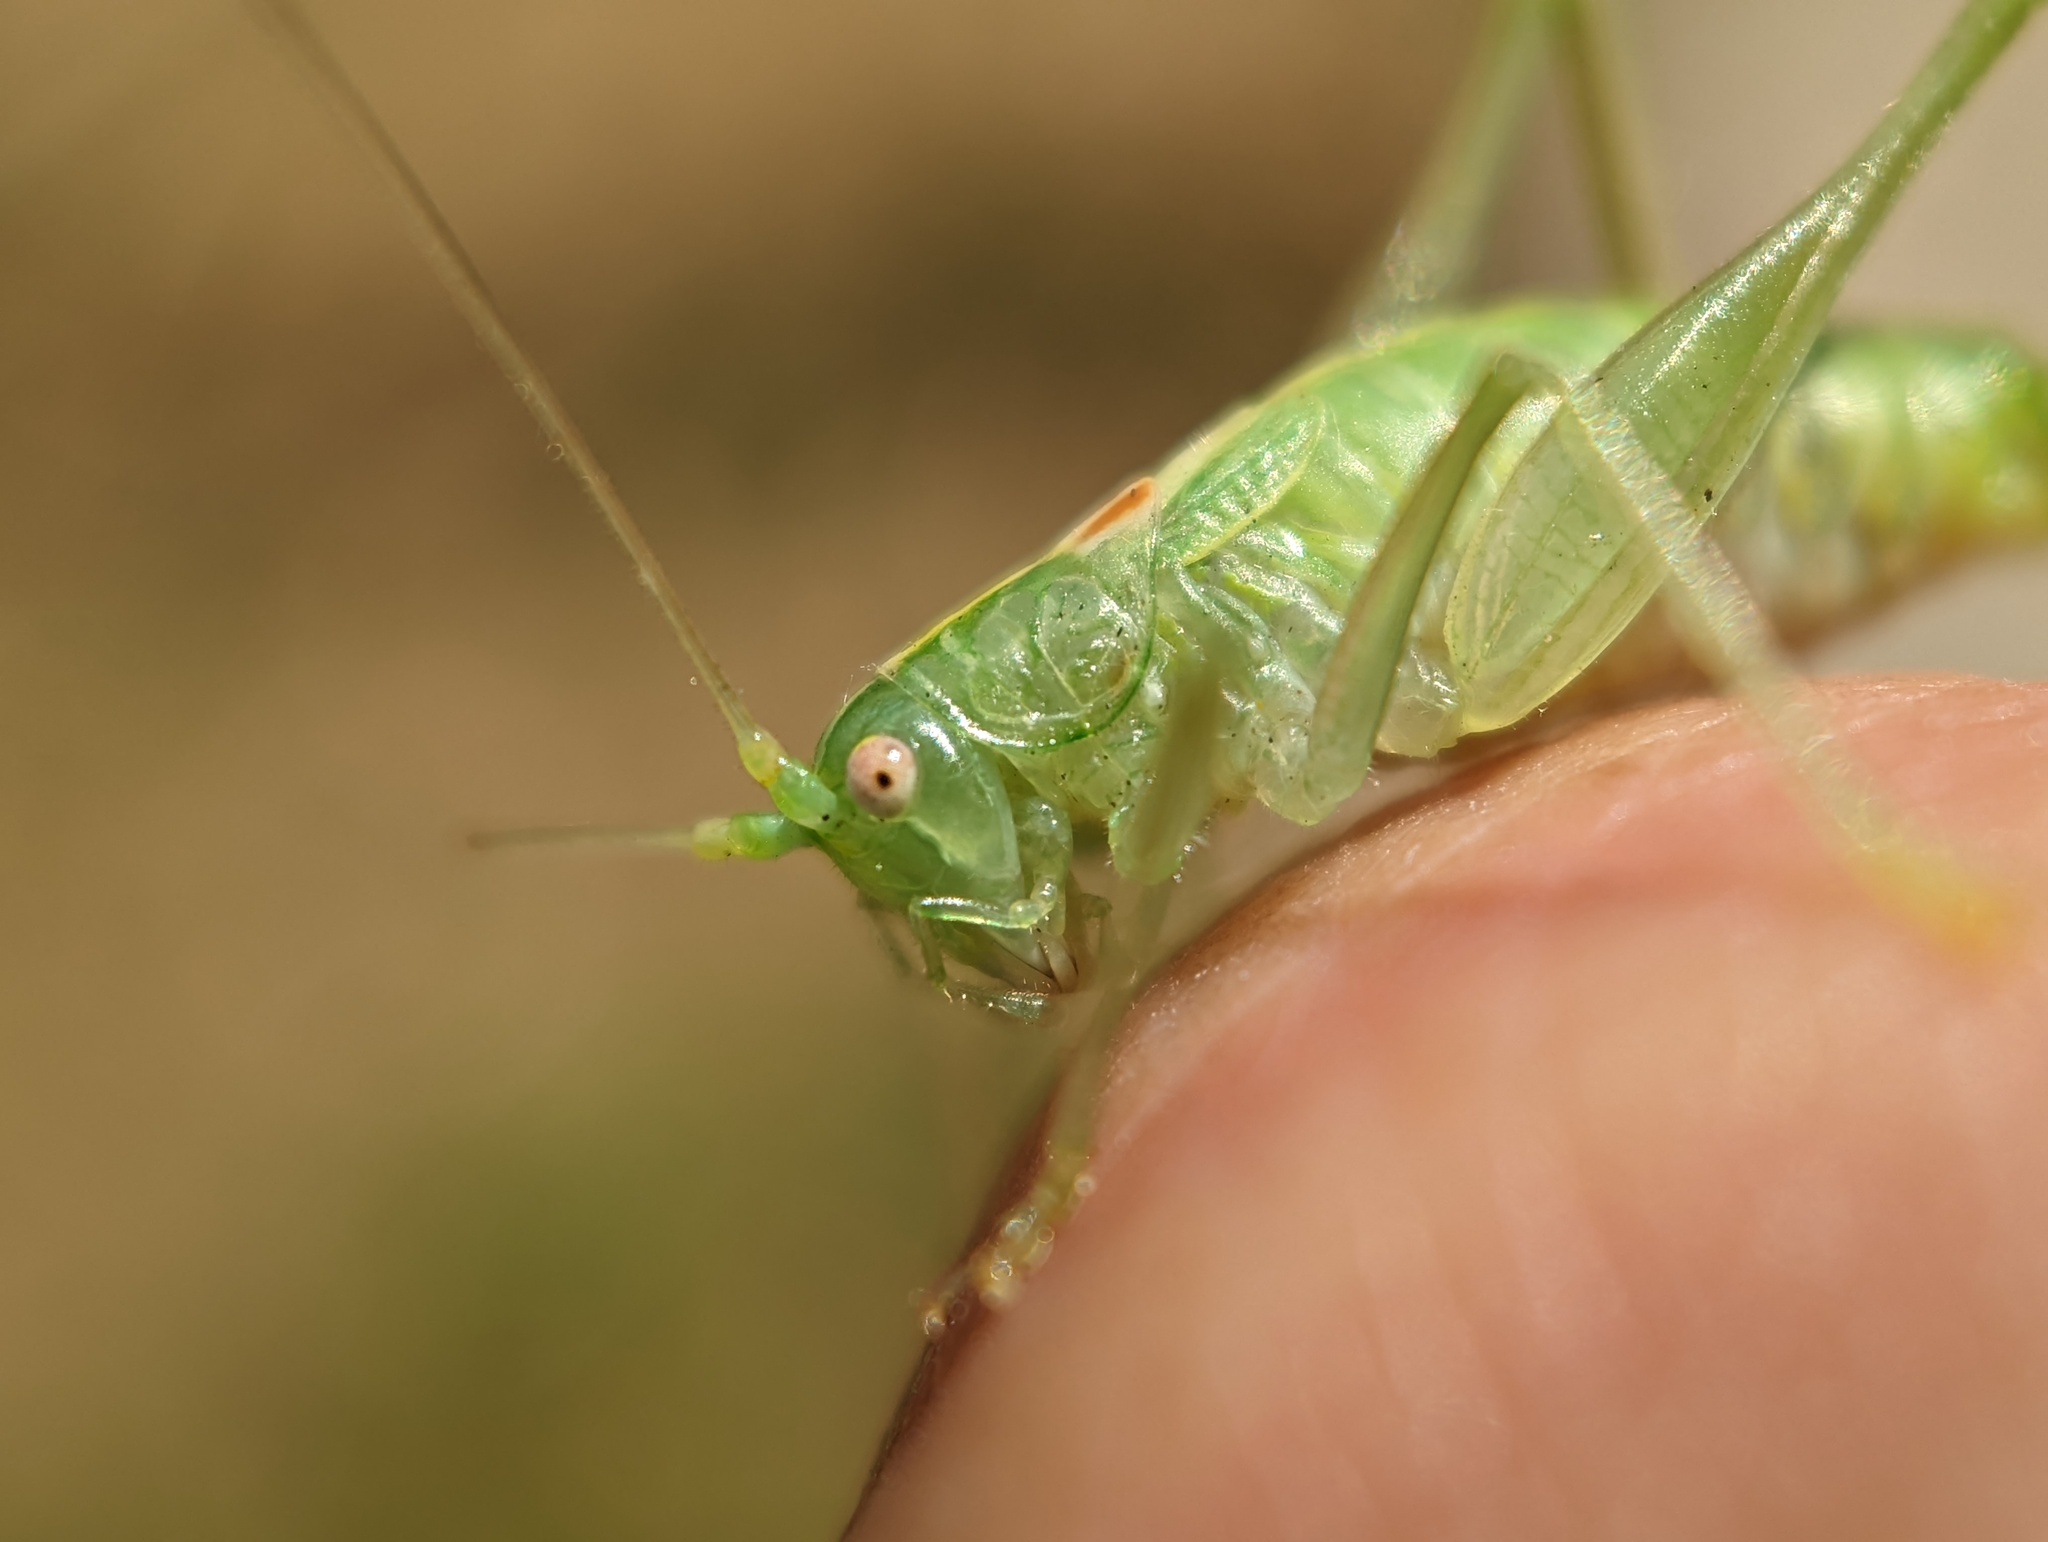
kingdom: Animalia
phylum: Arthropoda
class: Insecta
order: Orthoptera
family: Tettigoniidae
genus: Meconema
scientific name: Meconema meridionale
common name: Southern oak bush-cricket
